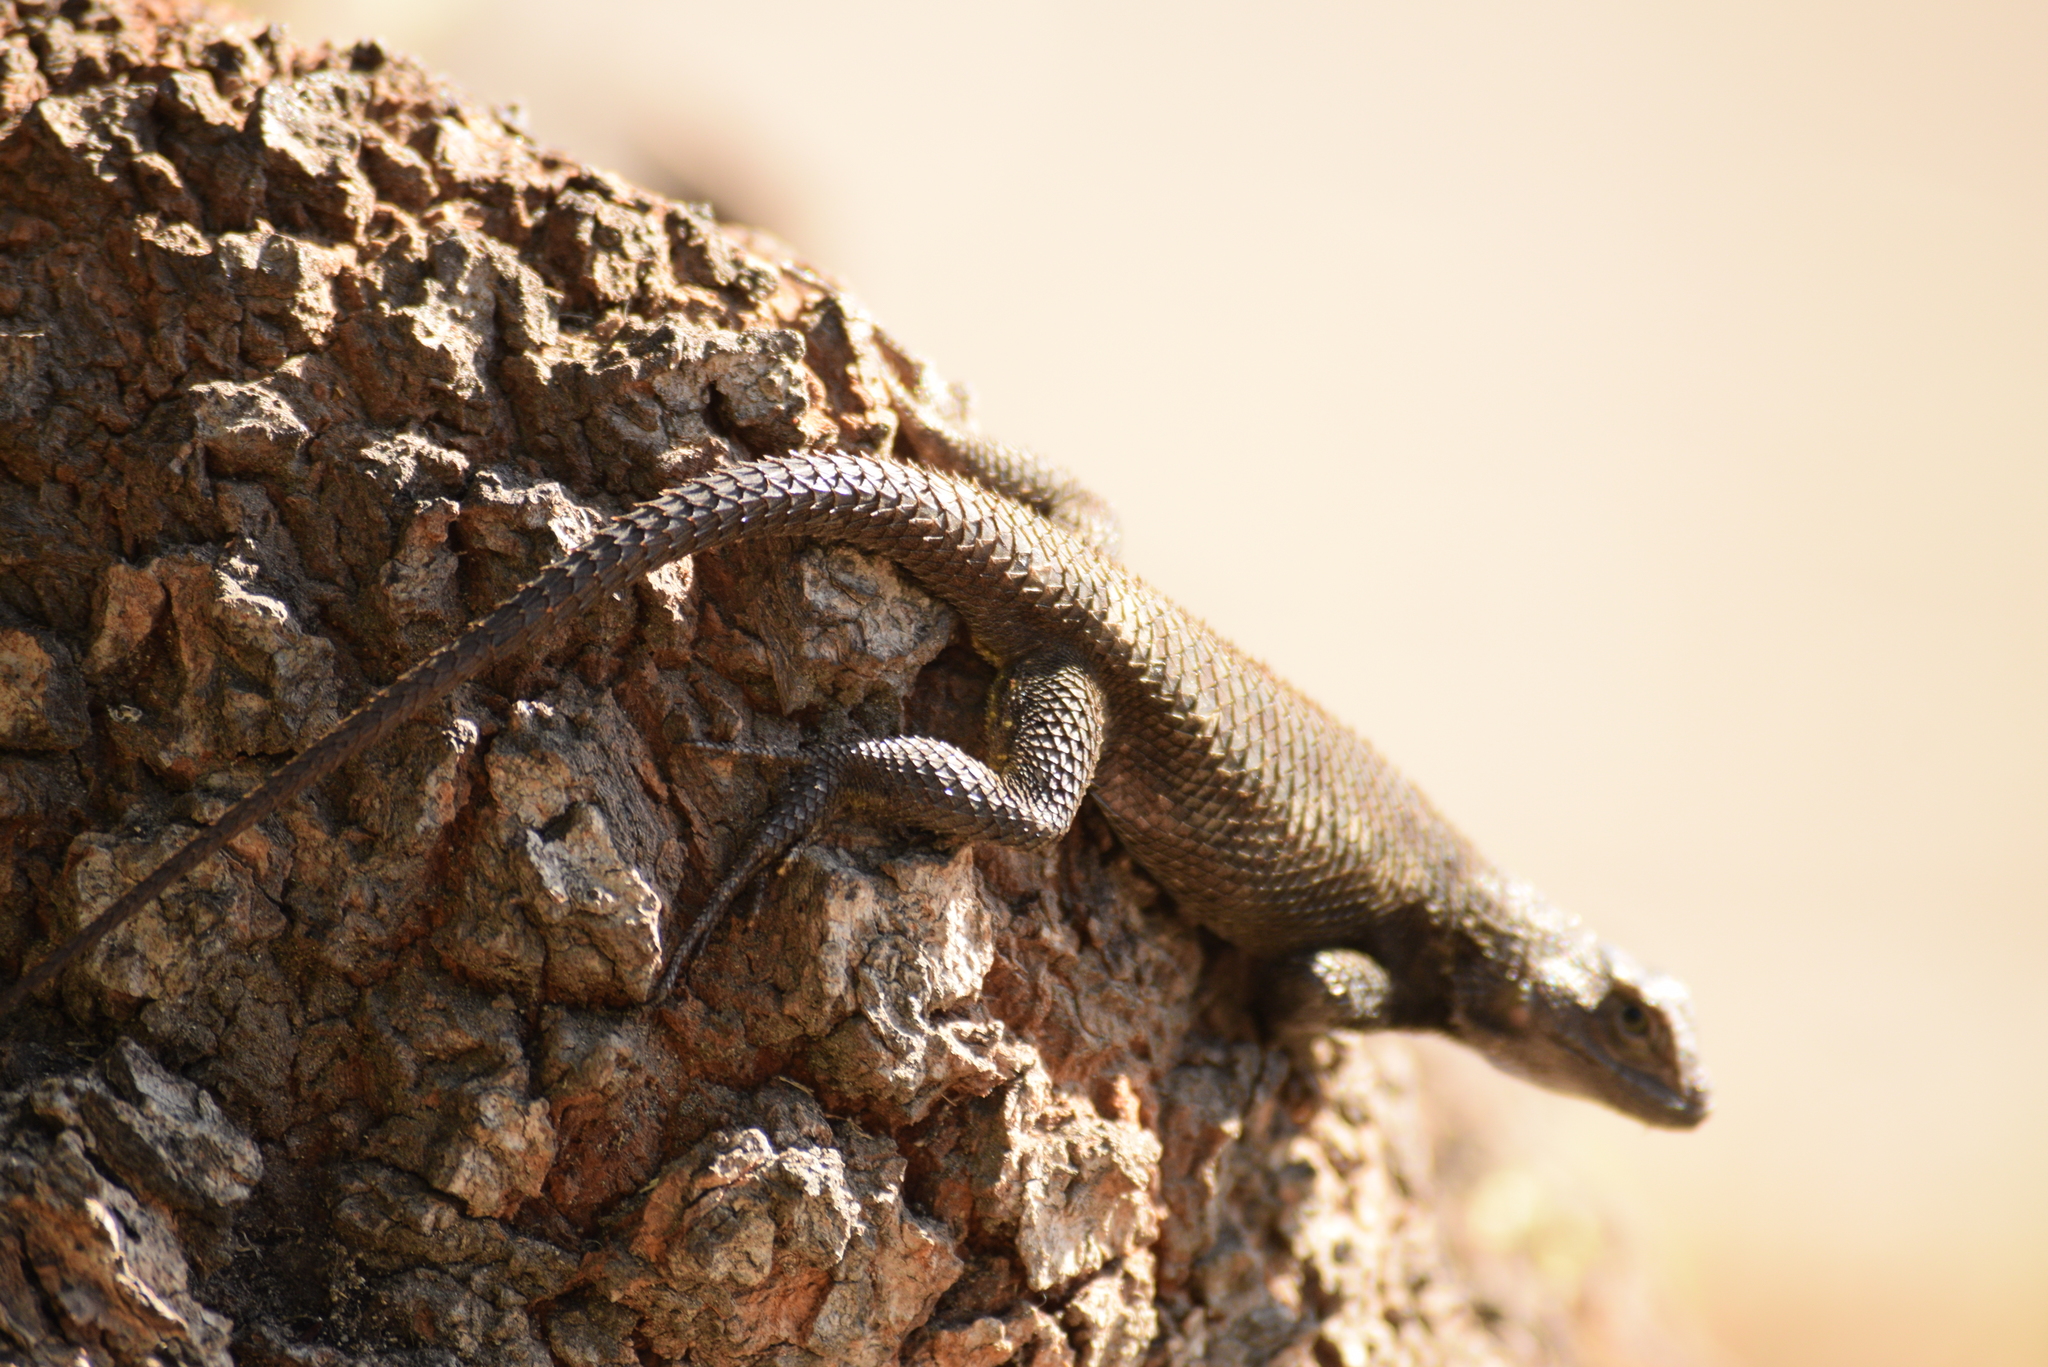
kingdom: Animalia
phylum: Chordata
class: Squamata
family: Phrynosomatidae
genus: Sceloporus
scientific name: Sceloporus occidentalis
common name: Western fence lizard
